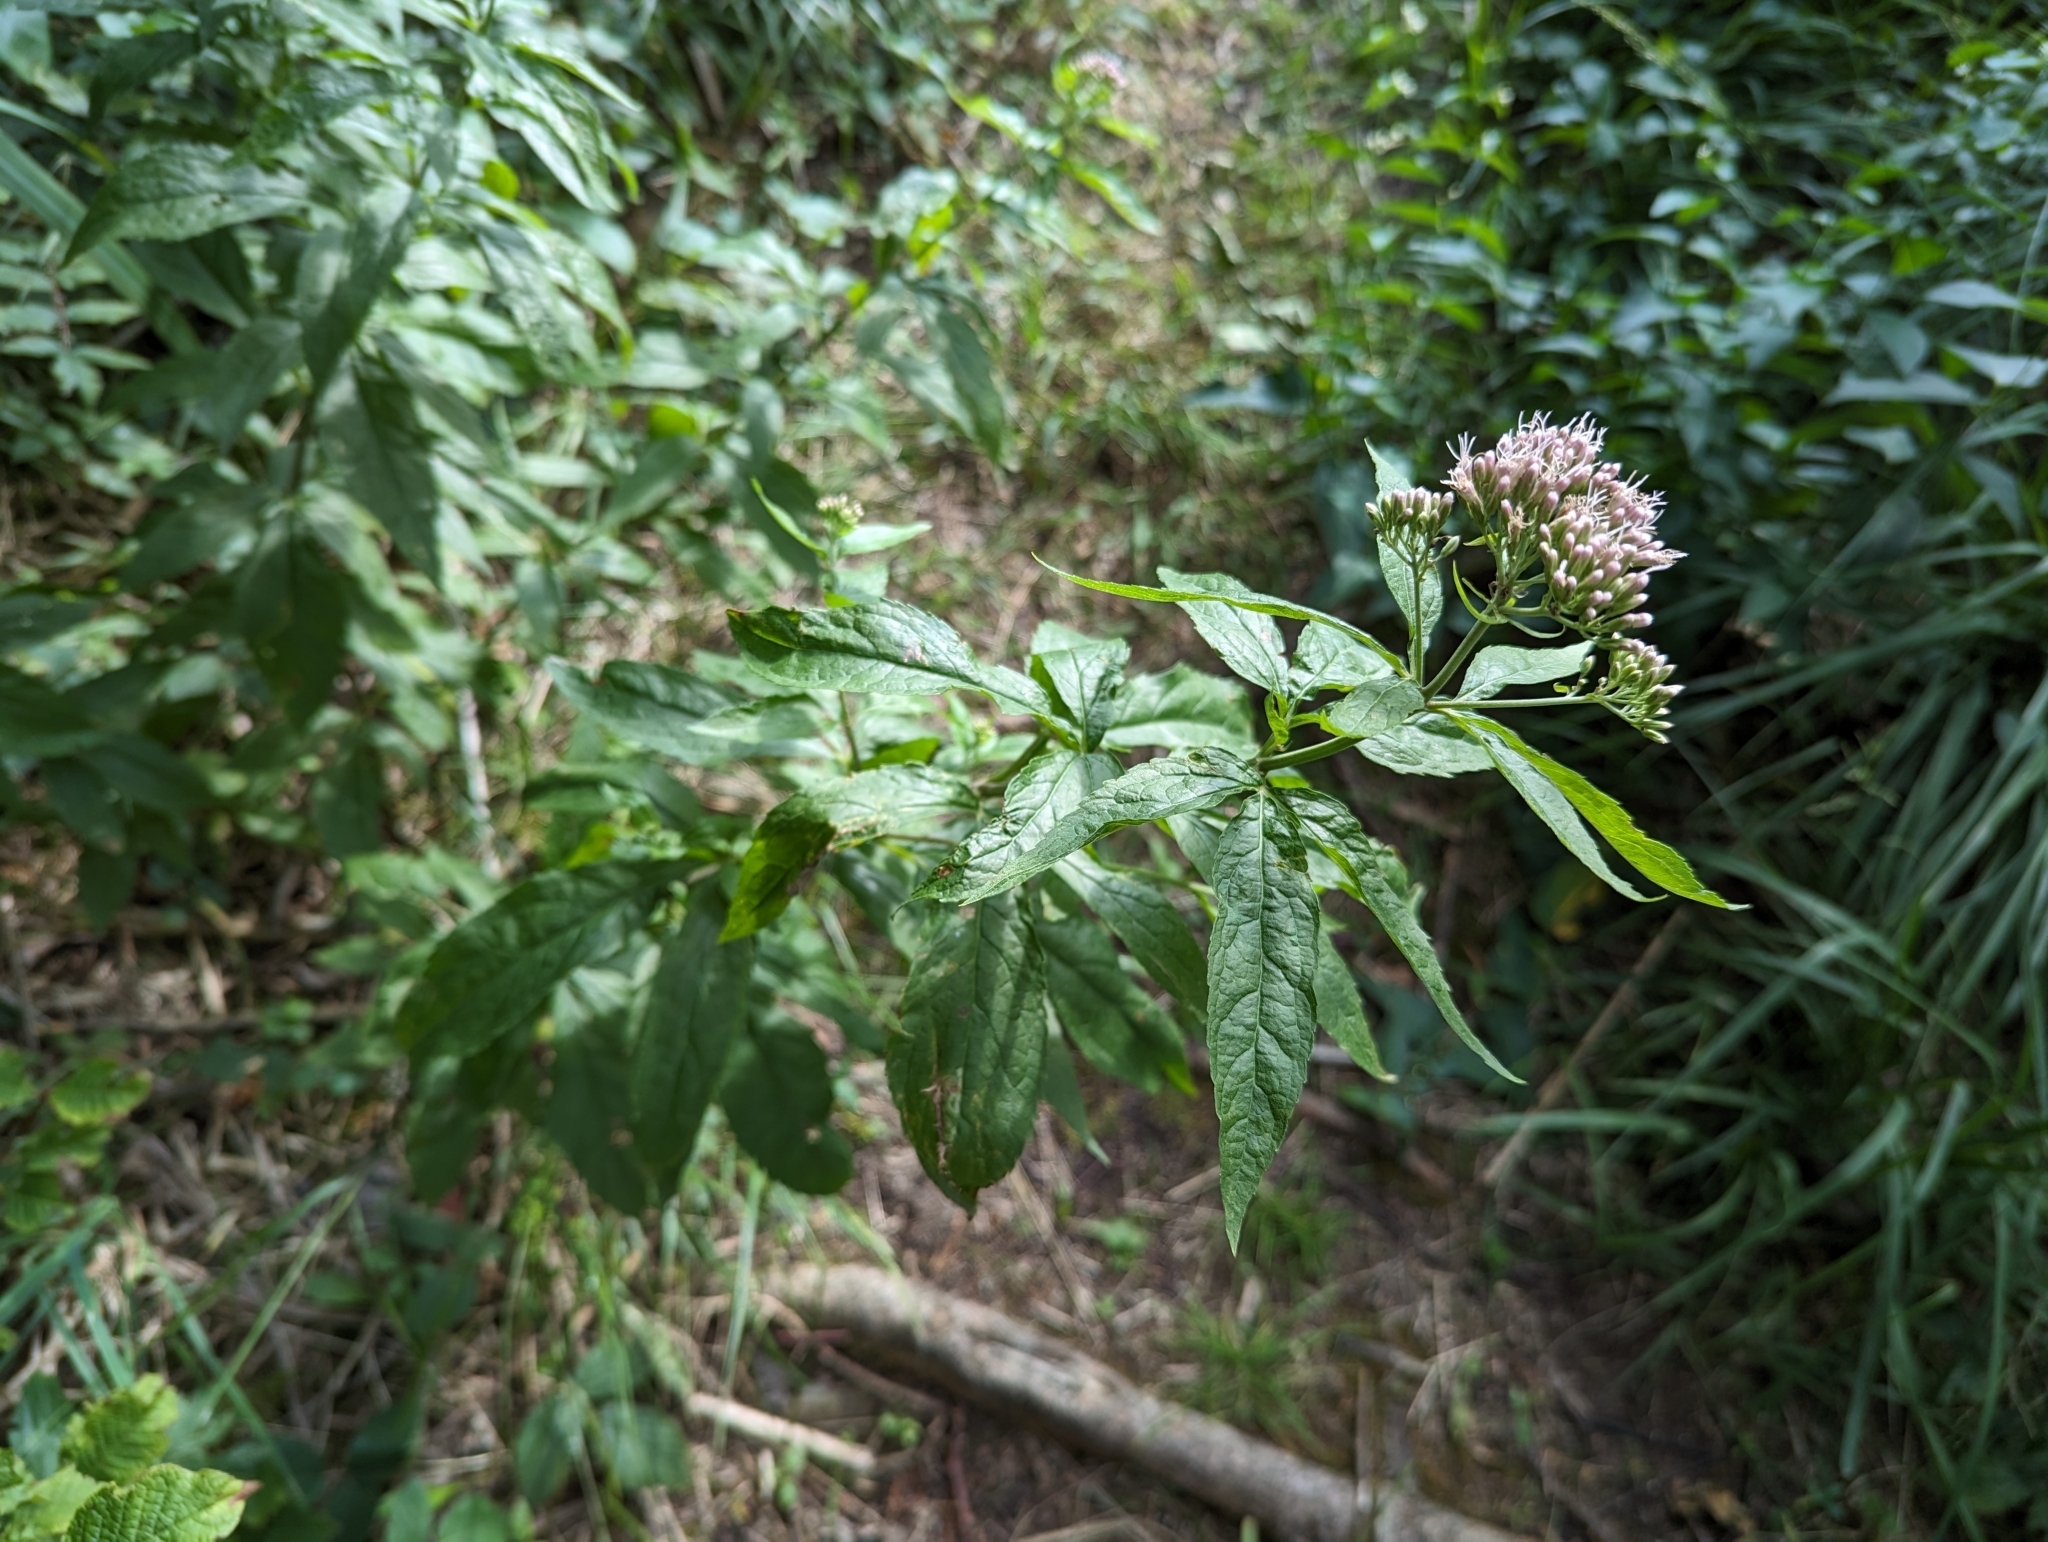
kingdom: Plantae
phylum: Tracheophyta
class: Magnoliopsida
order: Asterales
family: Asteraceae
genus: Eupatorium
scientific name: Eupatorium cannabinum
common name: Hemp-agrimony
